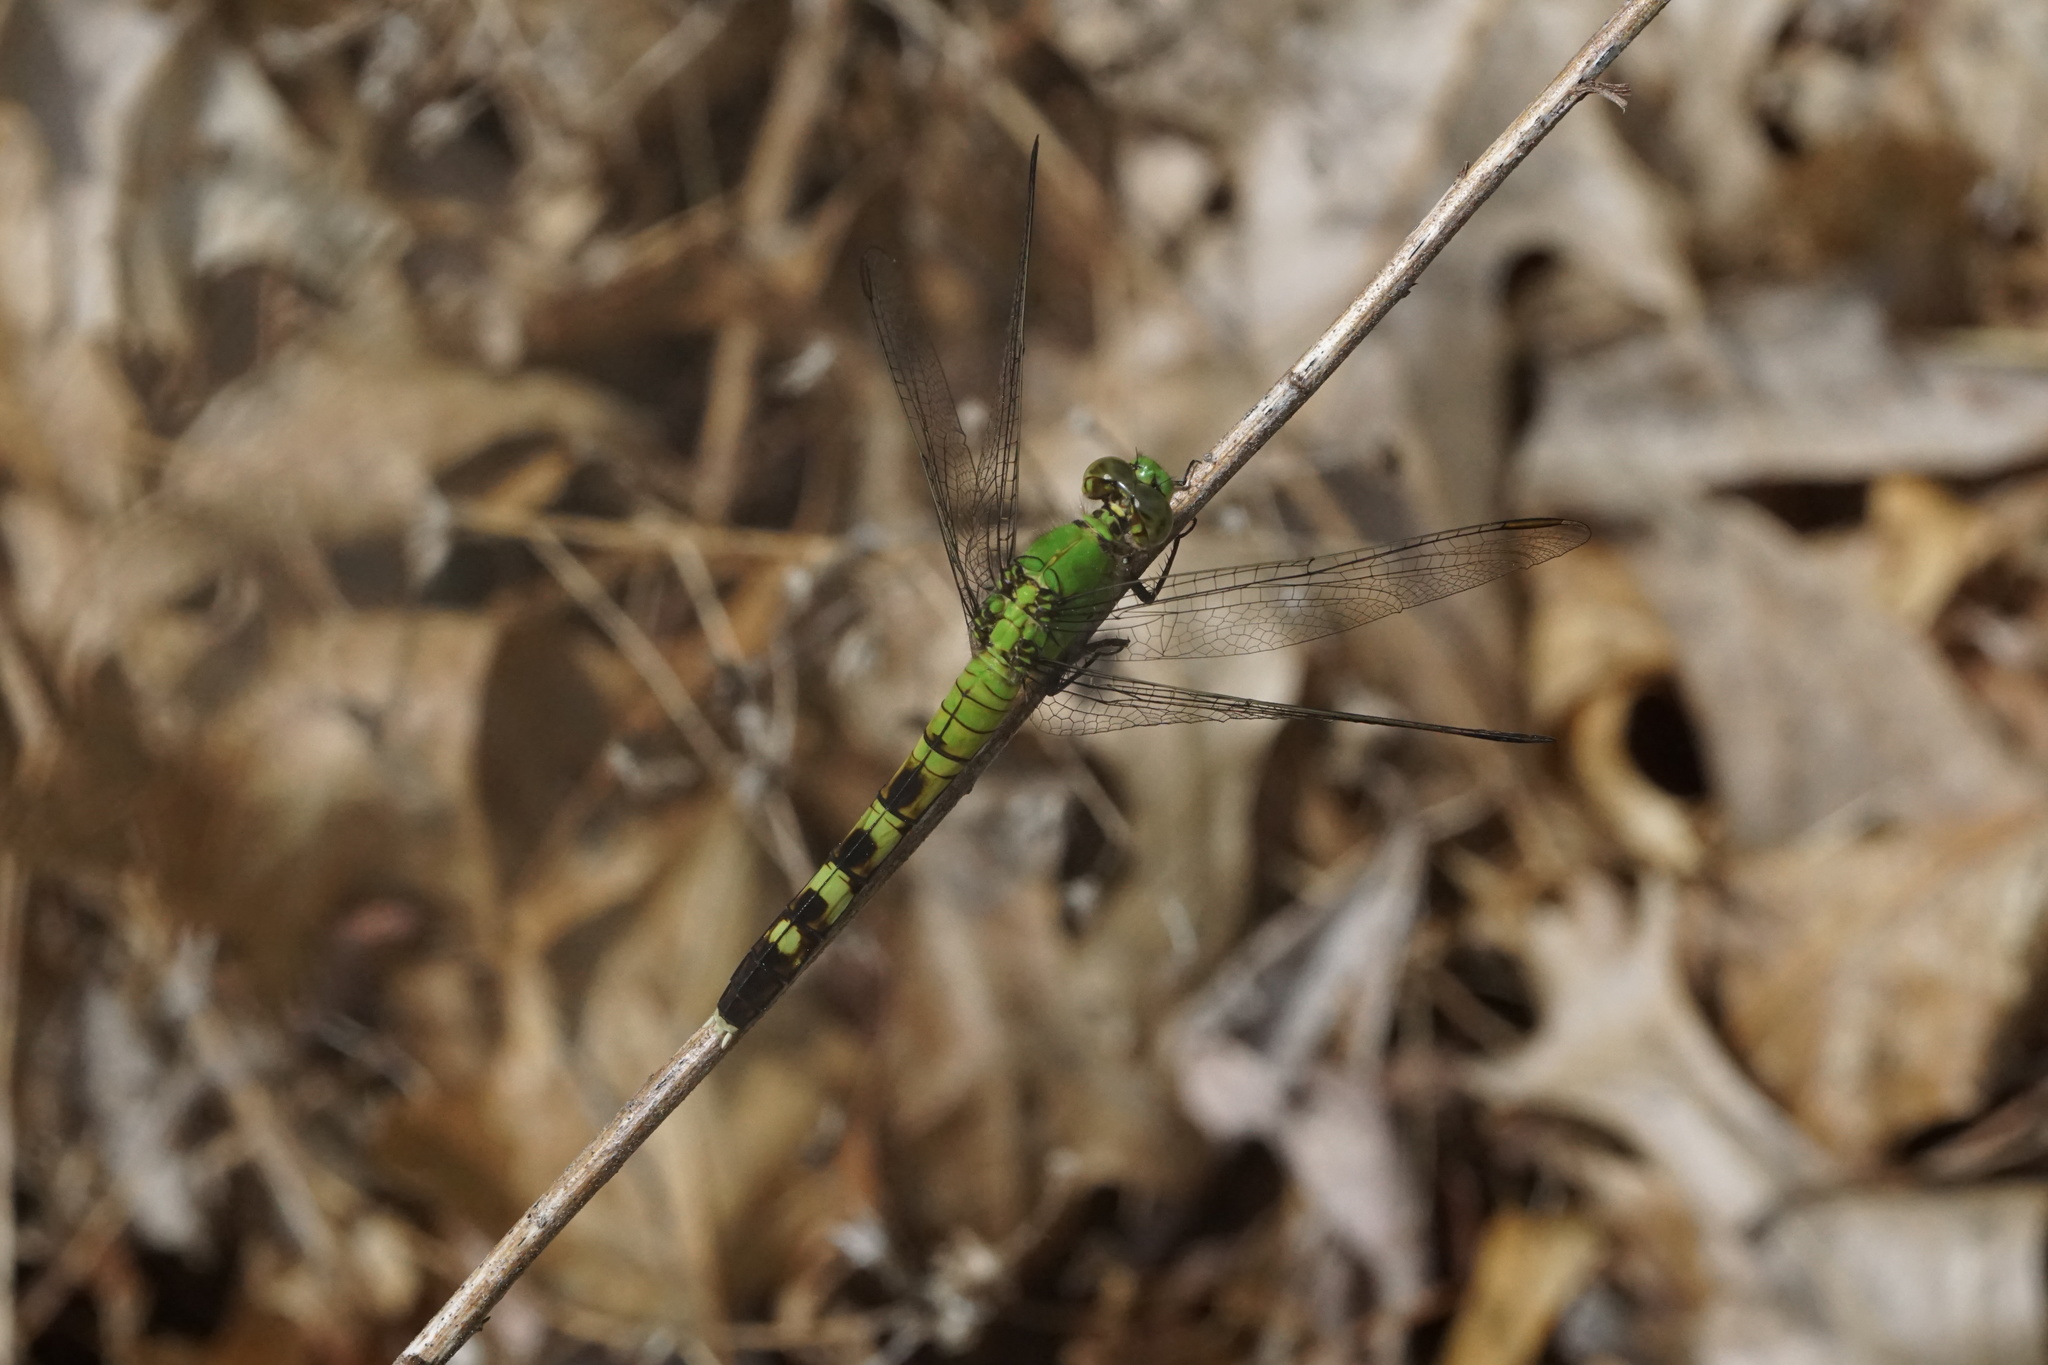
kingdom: Animalia
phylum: Arthropoda
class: Insecta
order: Odonata
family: Libellulidae
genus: Erythemis
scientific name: Erythemis simplicicollis
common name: Eastern pondhawk
